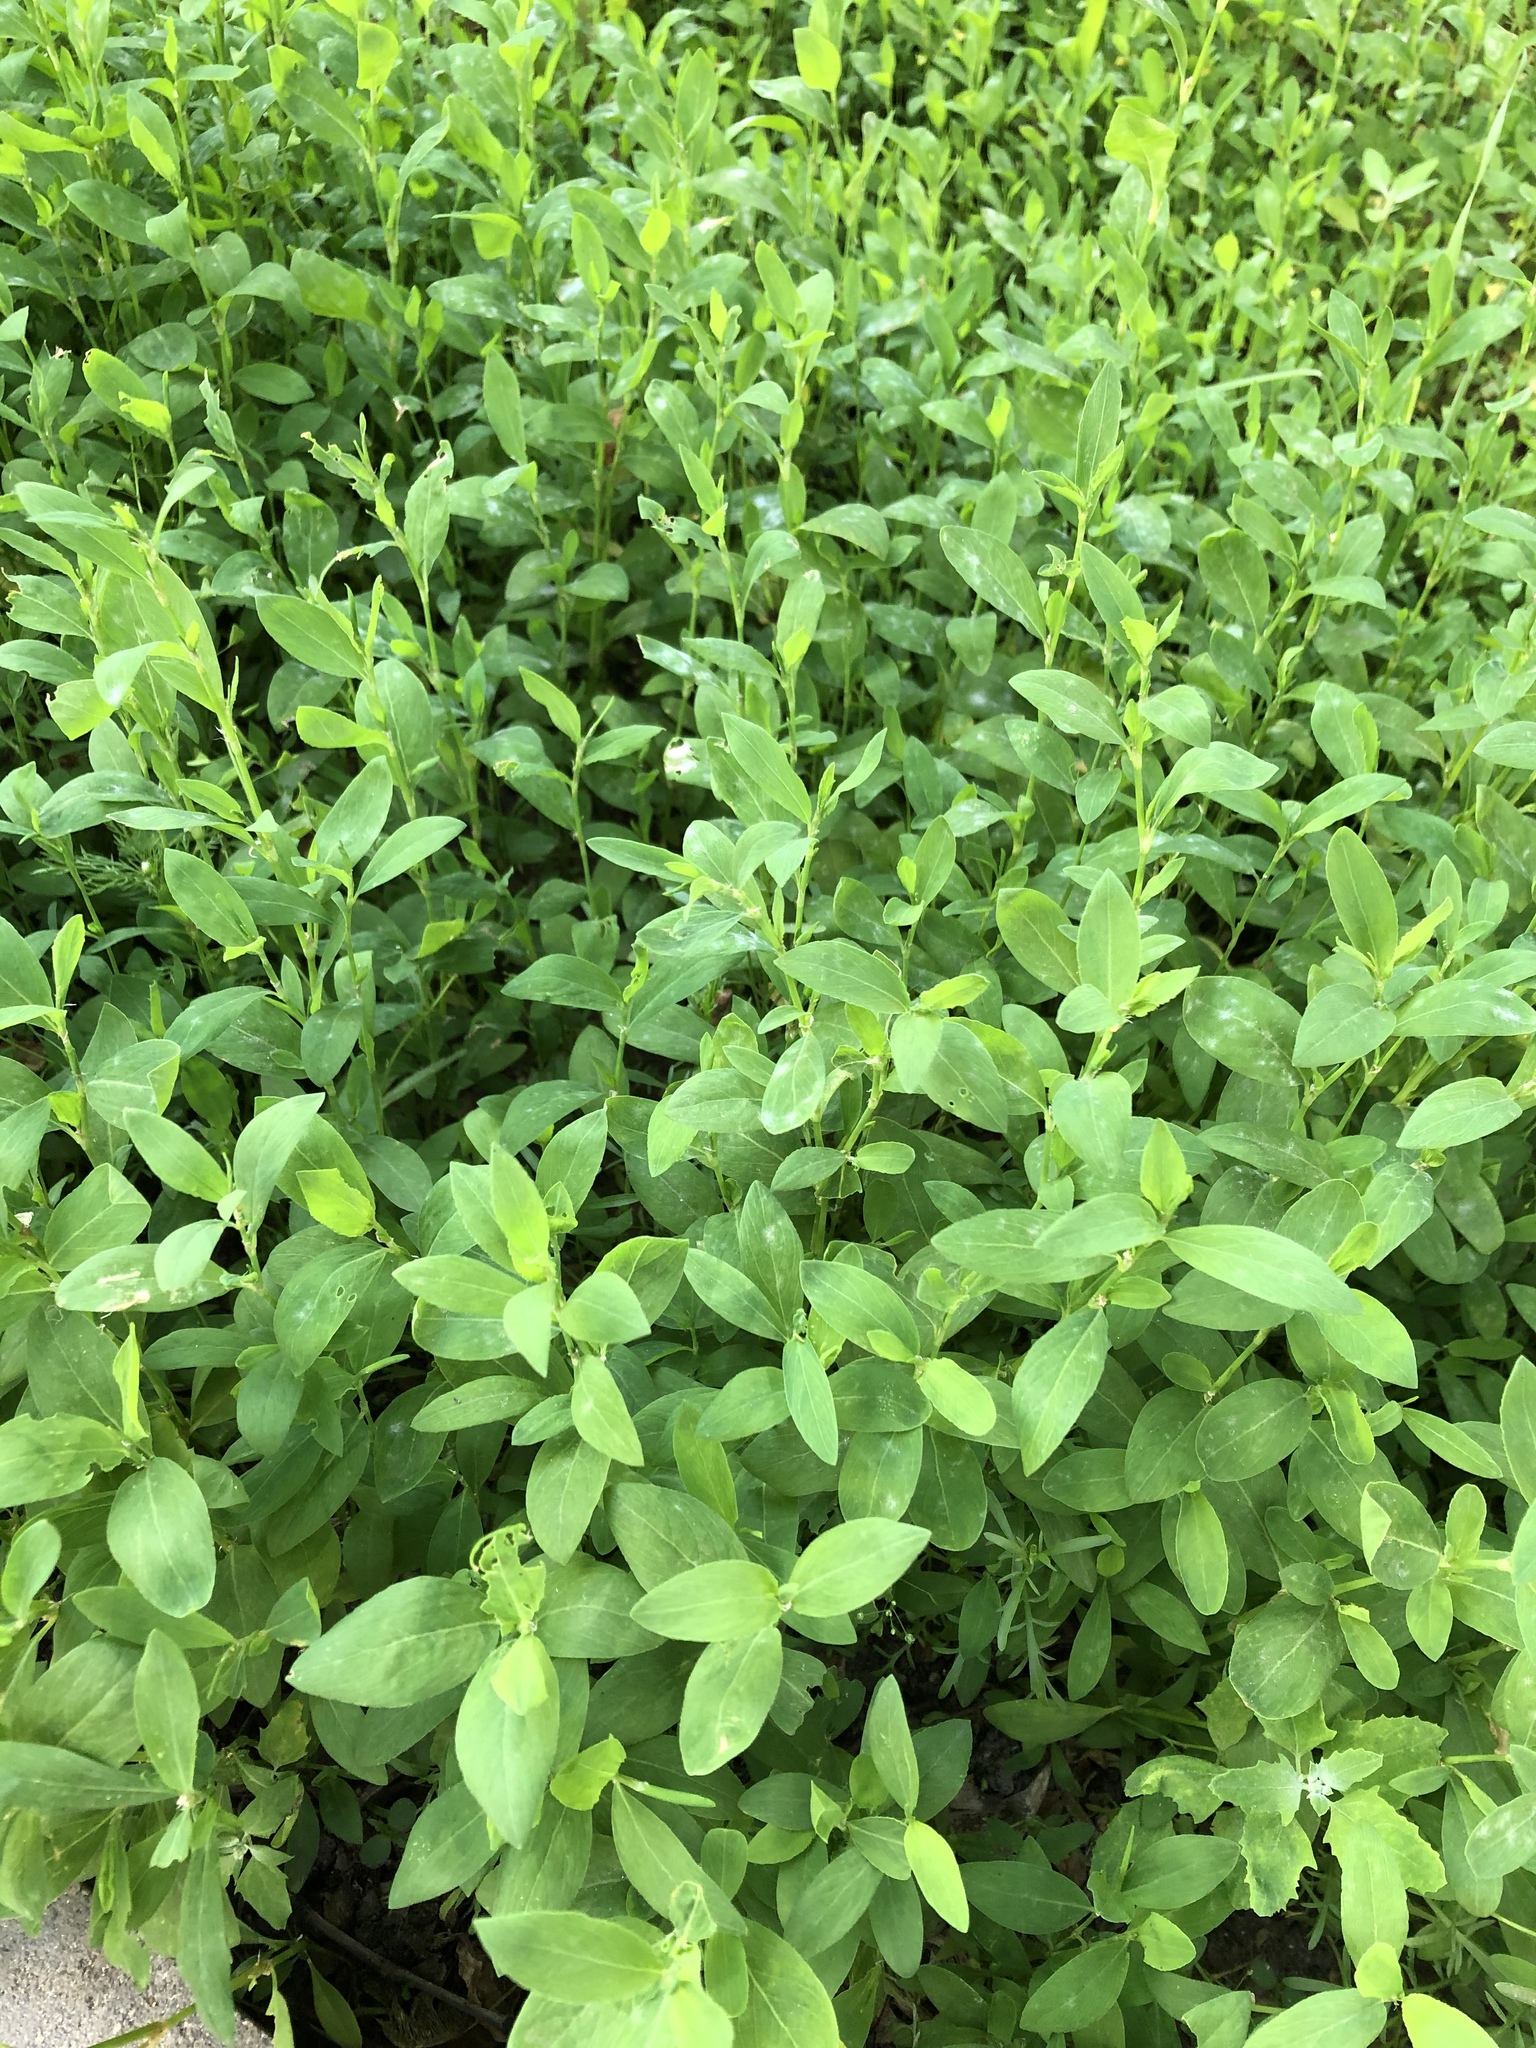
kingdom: Plantae
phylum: Tracheophyta
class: Magnoliopsida
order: Caryophyllales
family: Polygonaceae
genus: Polygonum
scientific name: Polygonum
